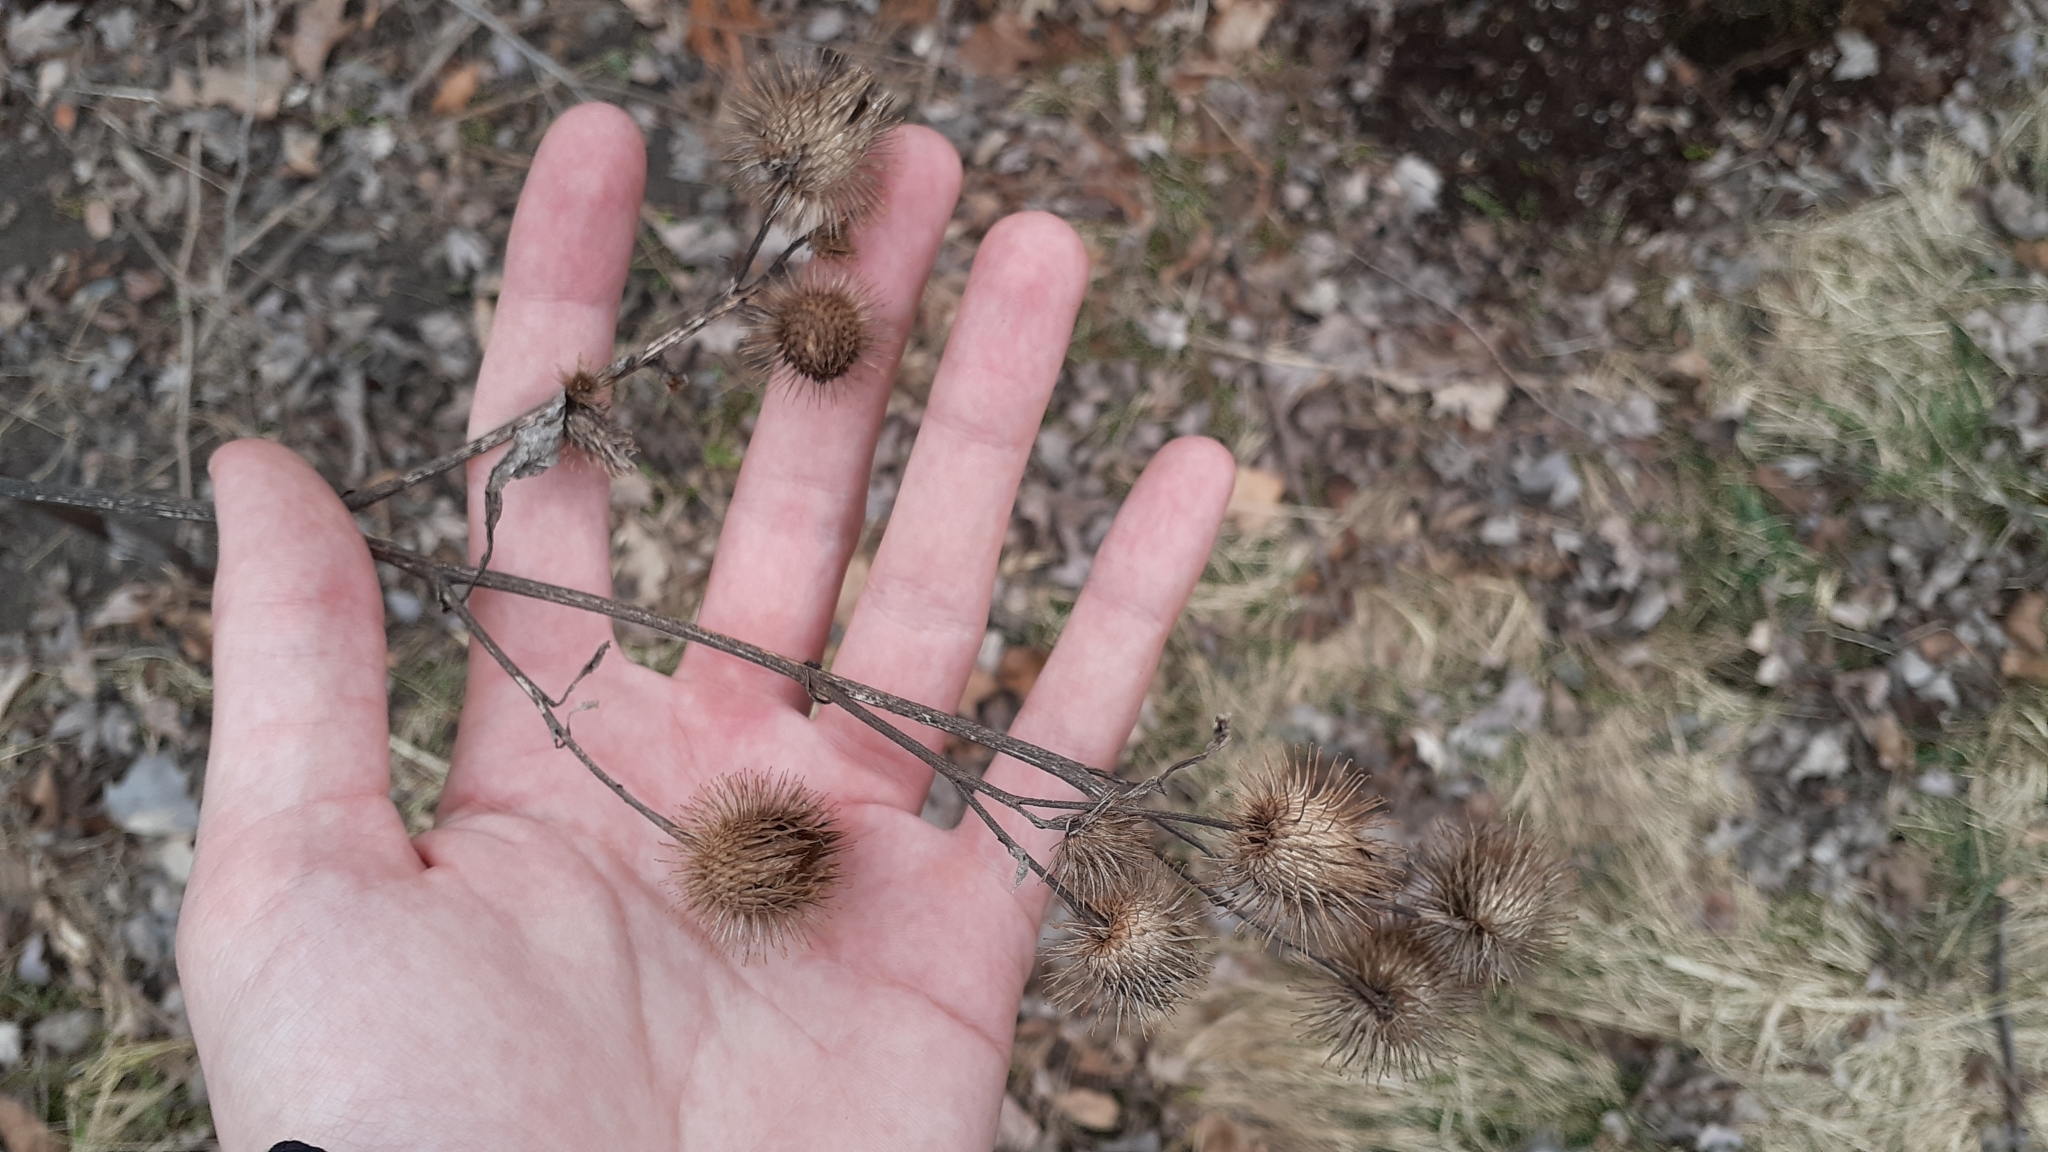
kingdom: Plantae
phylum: Tracheophyta
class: Magnoliopsida
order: Asterales
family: Asteraceae
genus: Arctium
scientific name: Arctium lappa
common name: Greater burdock
